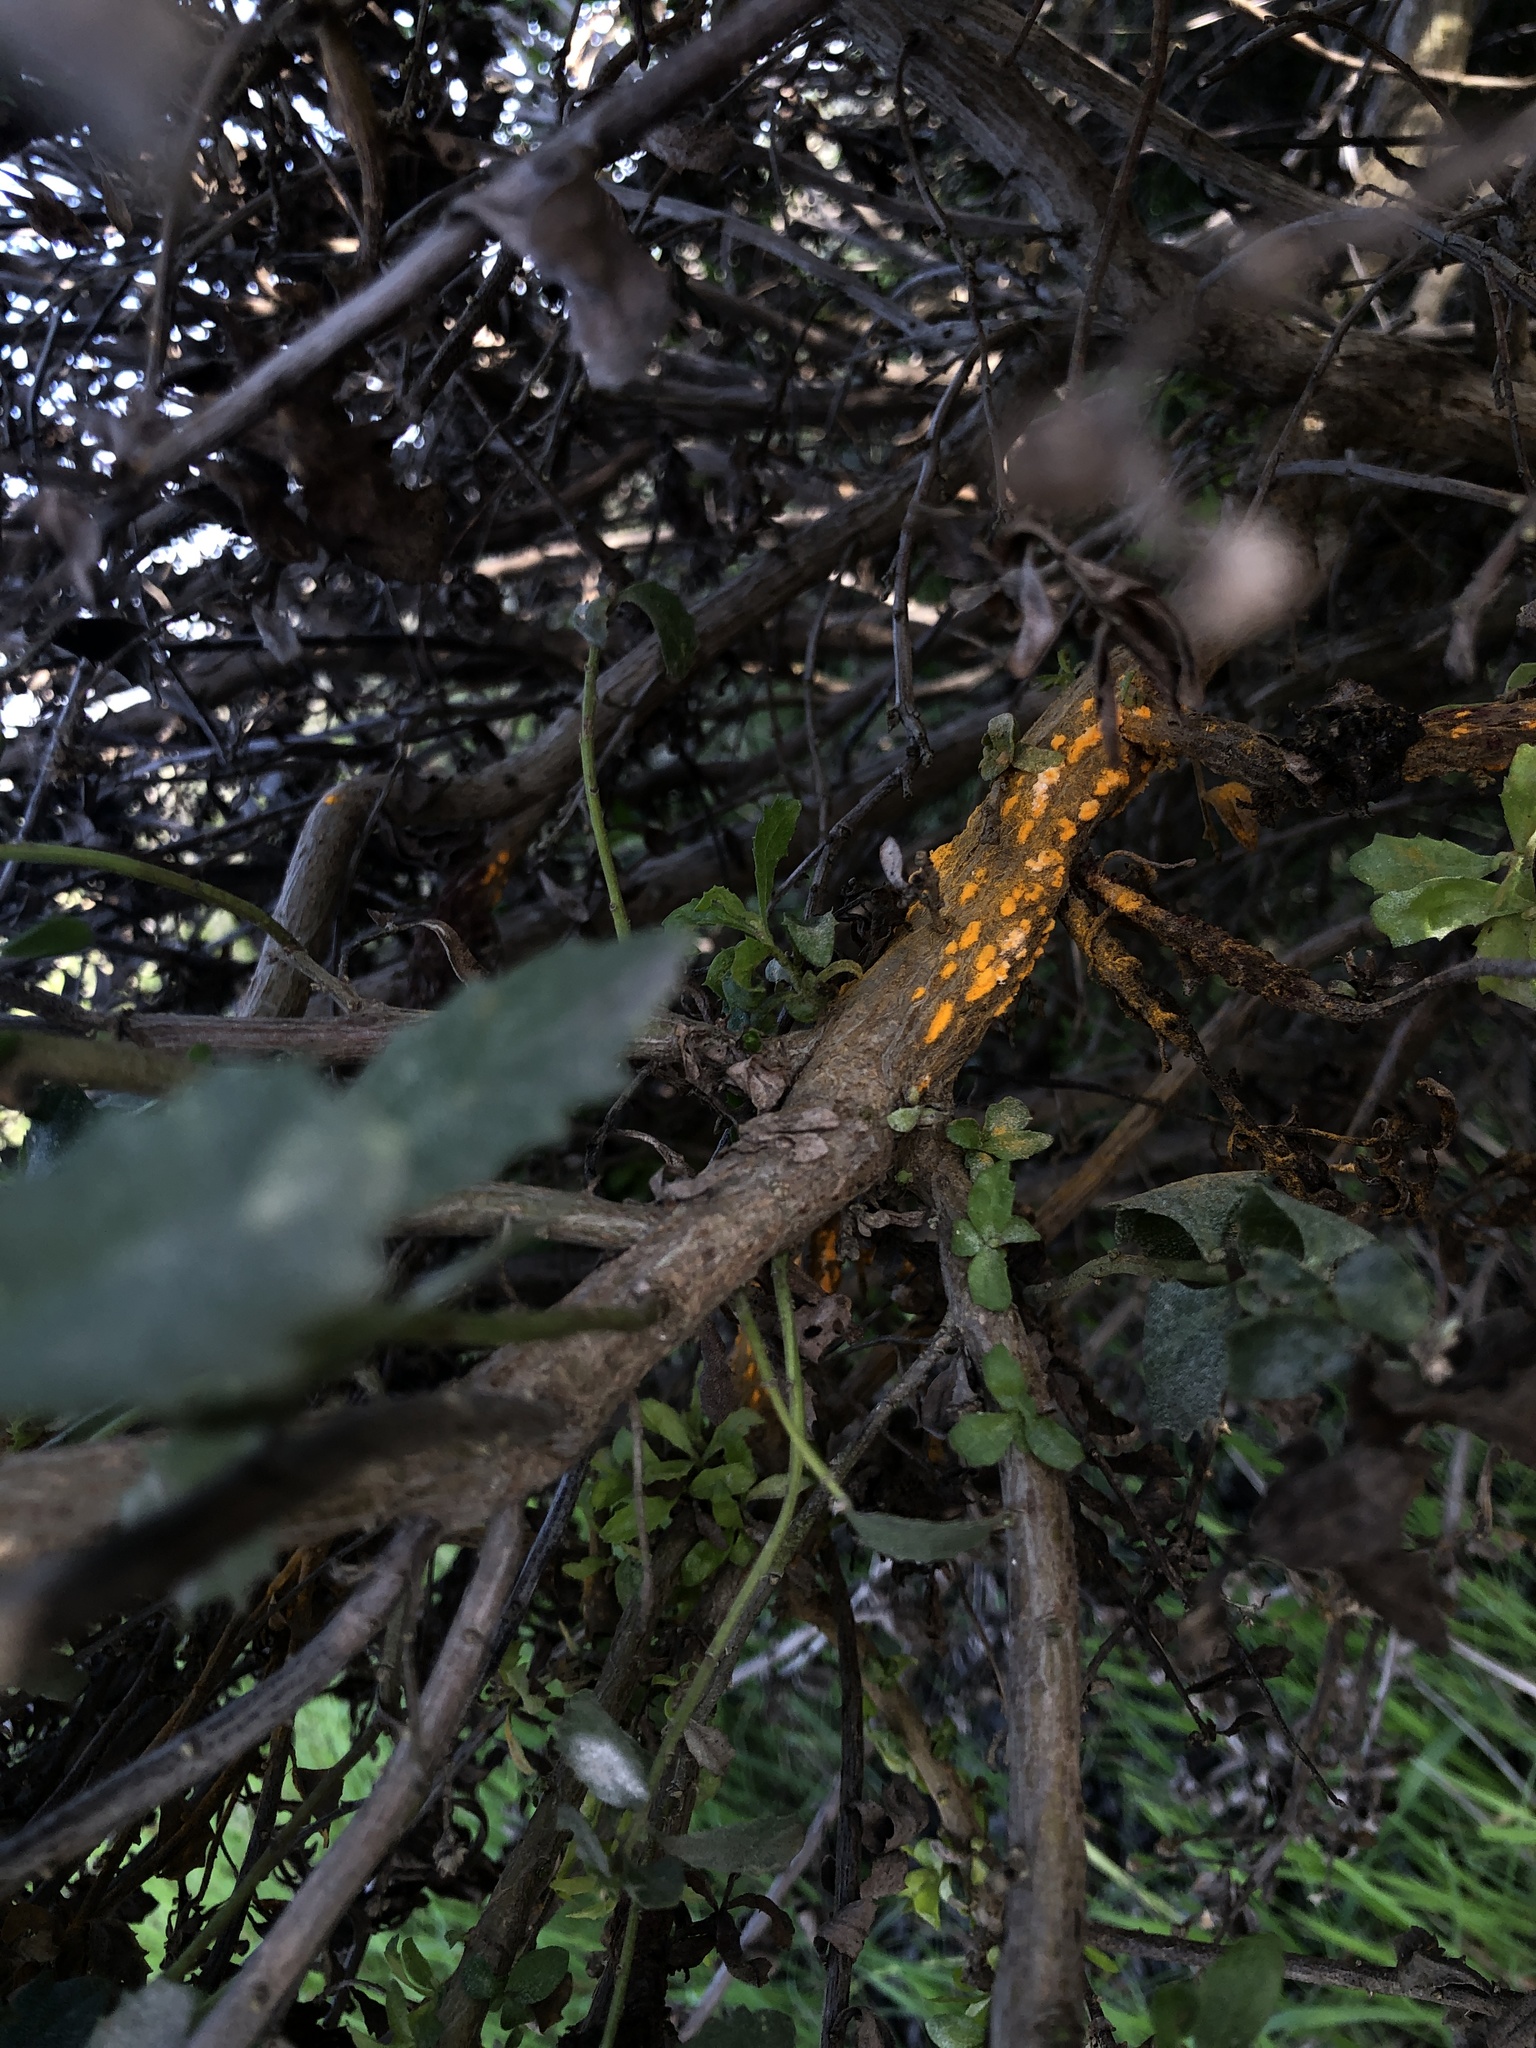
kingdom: Fungi
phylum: Basidiomycota
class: Pucciniomycetes
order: Pucciniales
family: Pucciniaceae
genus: Eriosporangium
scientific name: Eriosporangium evadens
